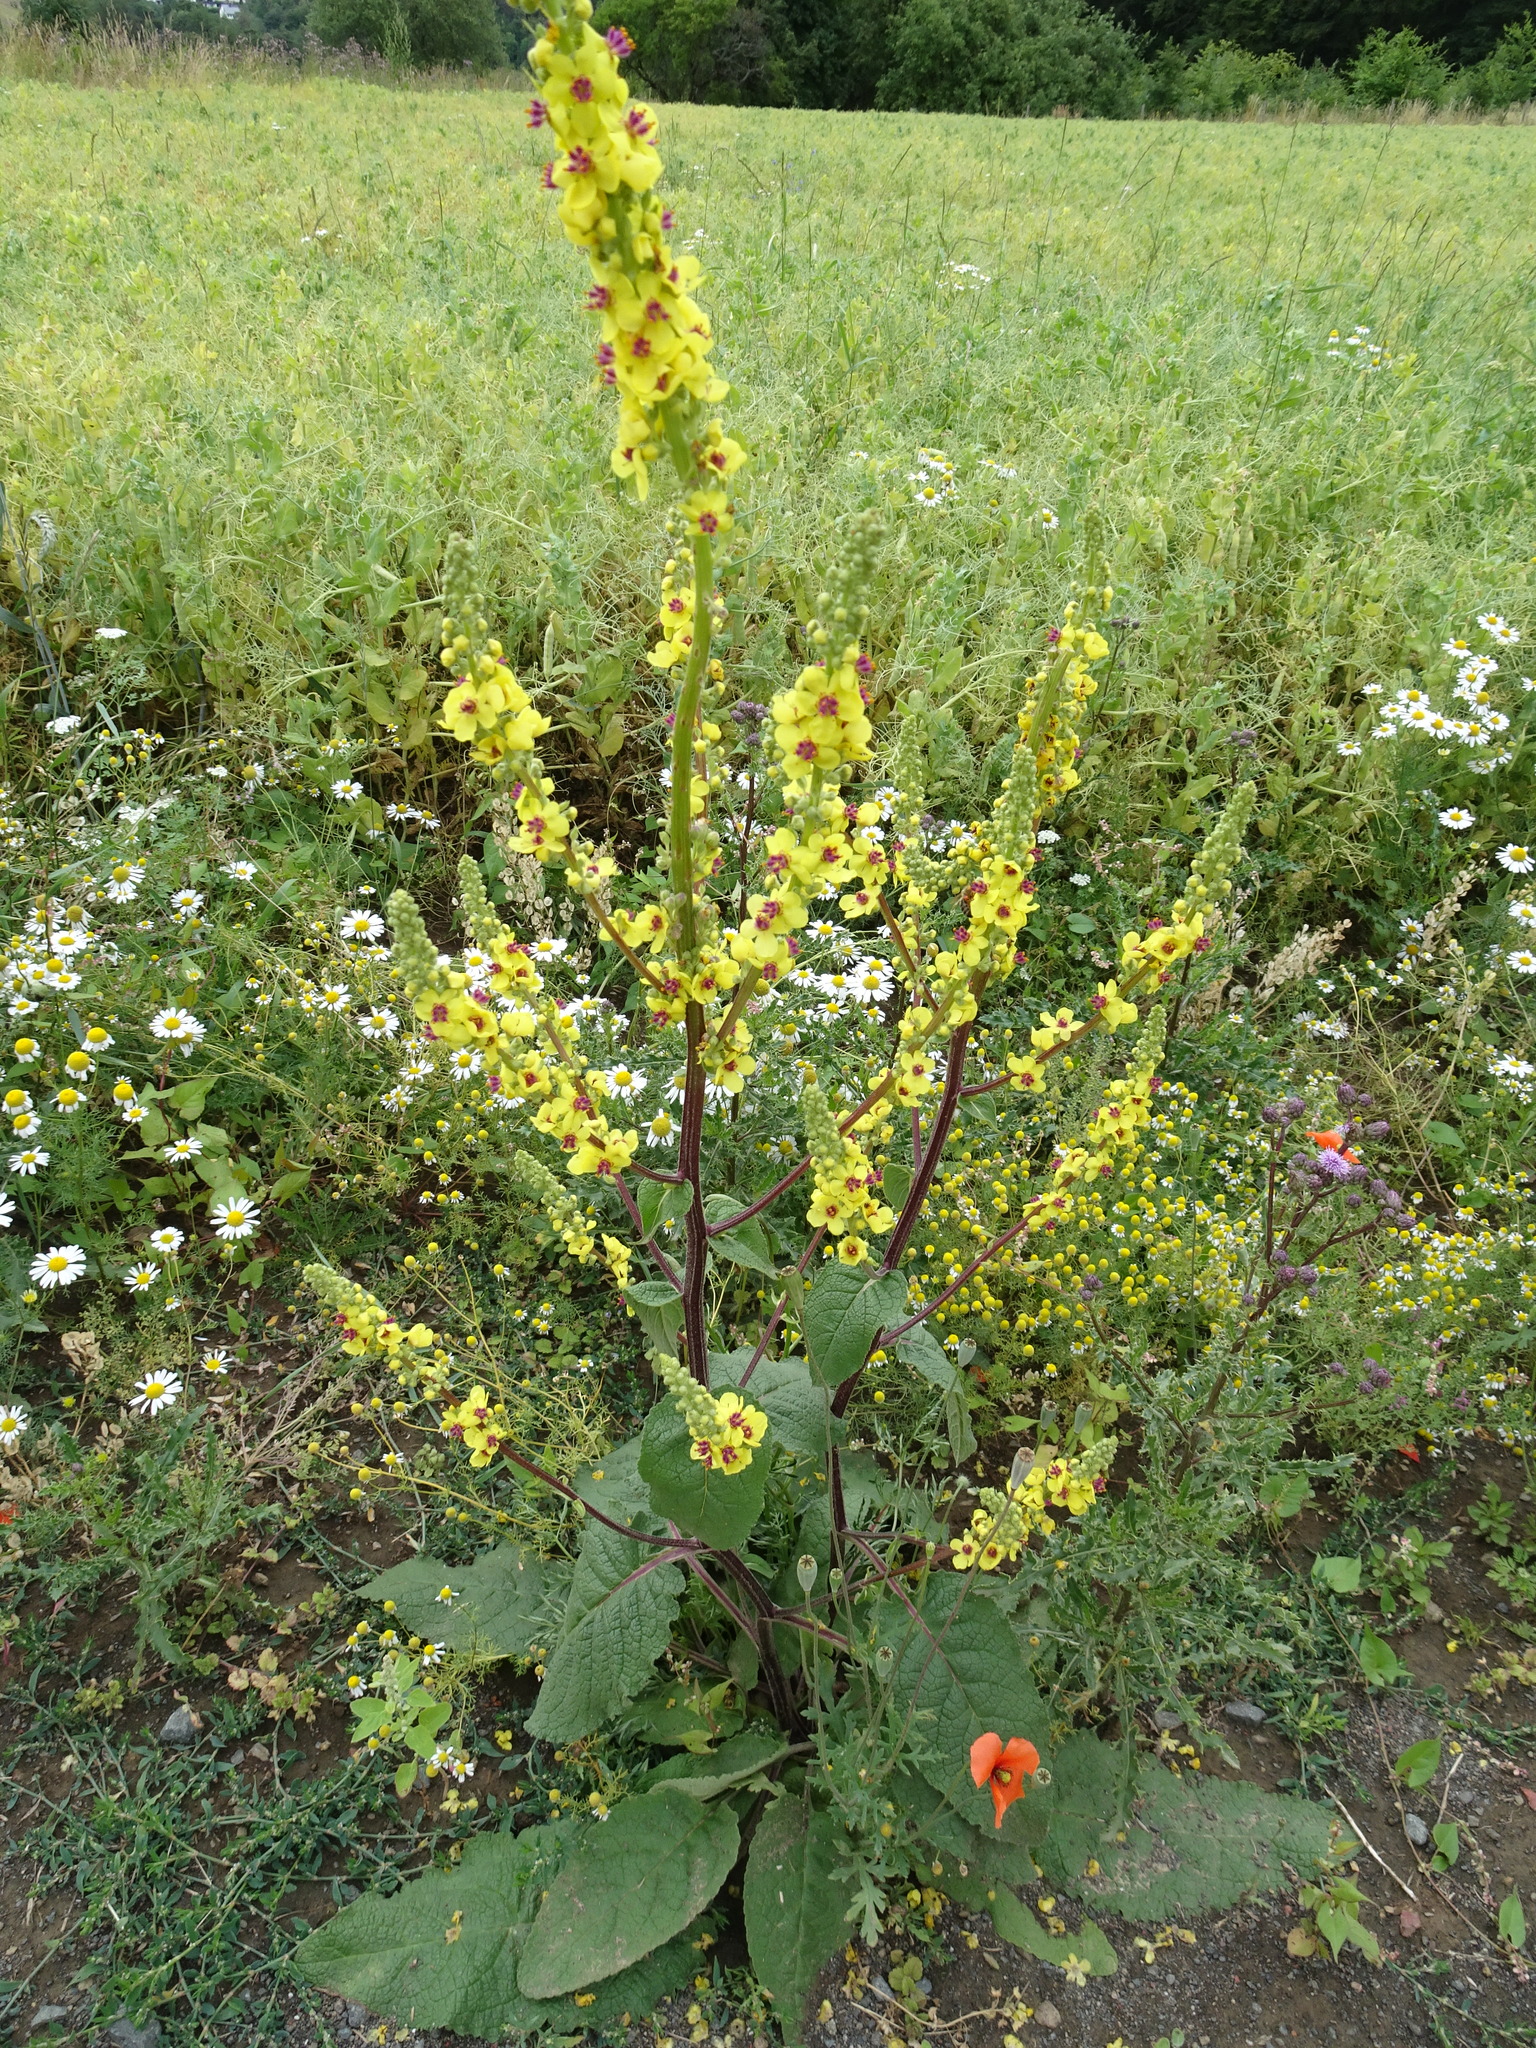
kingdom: Plantae
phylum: Tracheophyta
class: Magnoliopsida
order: Lamiales
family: Scrophulariaceae
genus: Verbascum
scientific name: Verbascum nigrum
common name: Dark mullein
